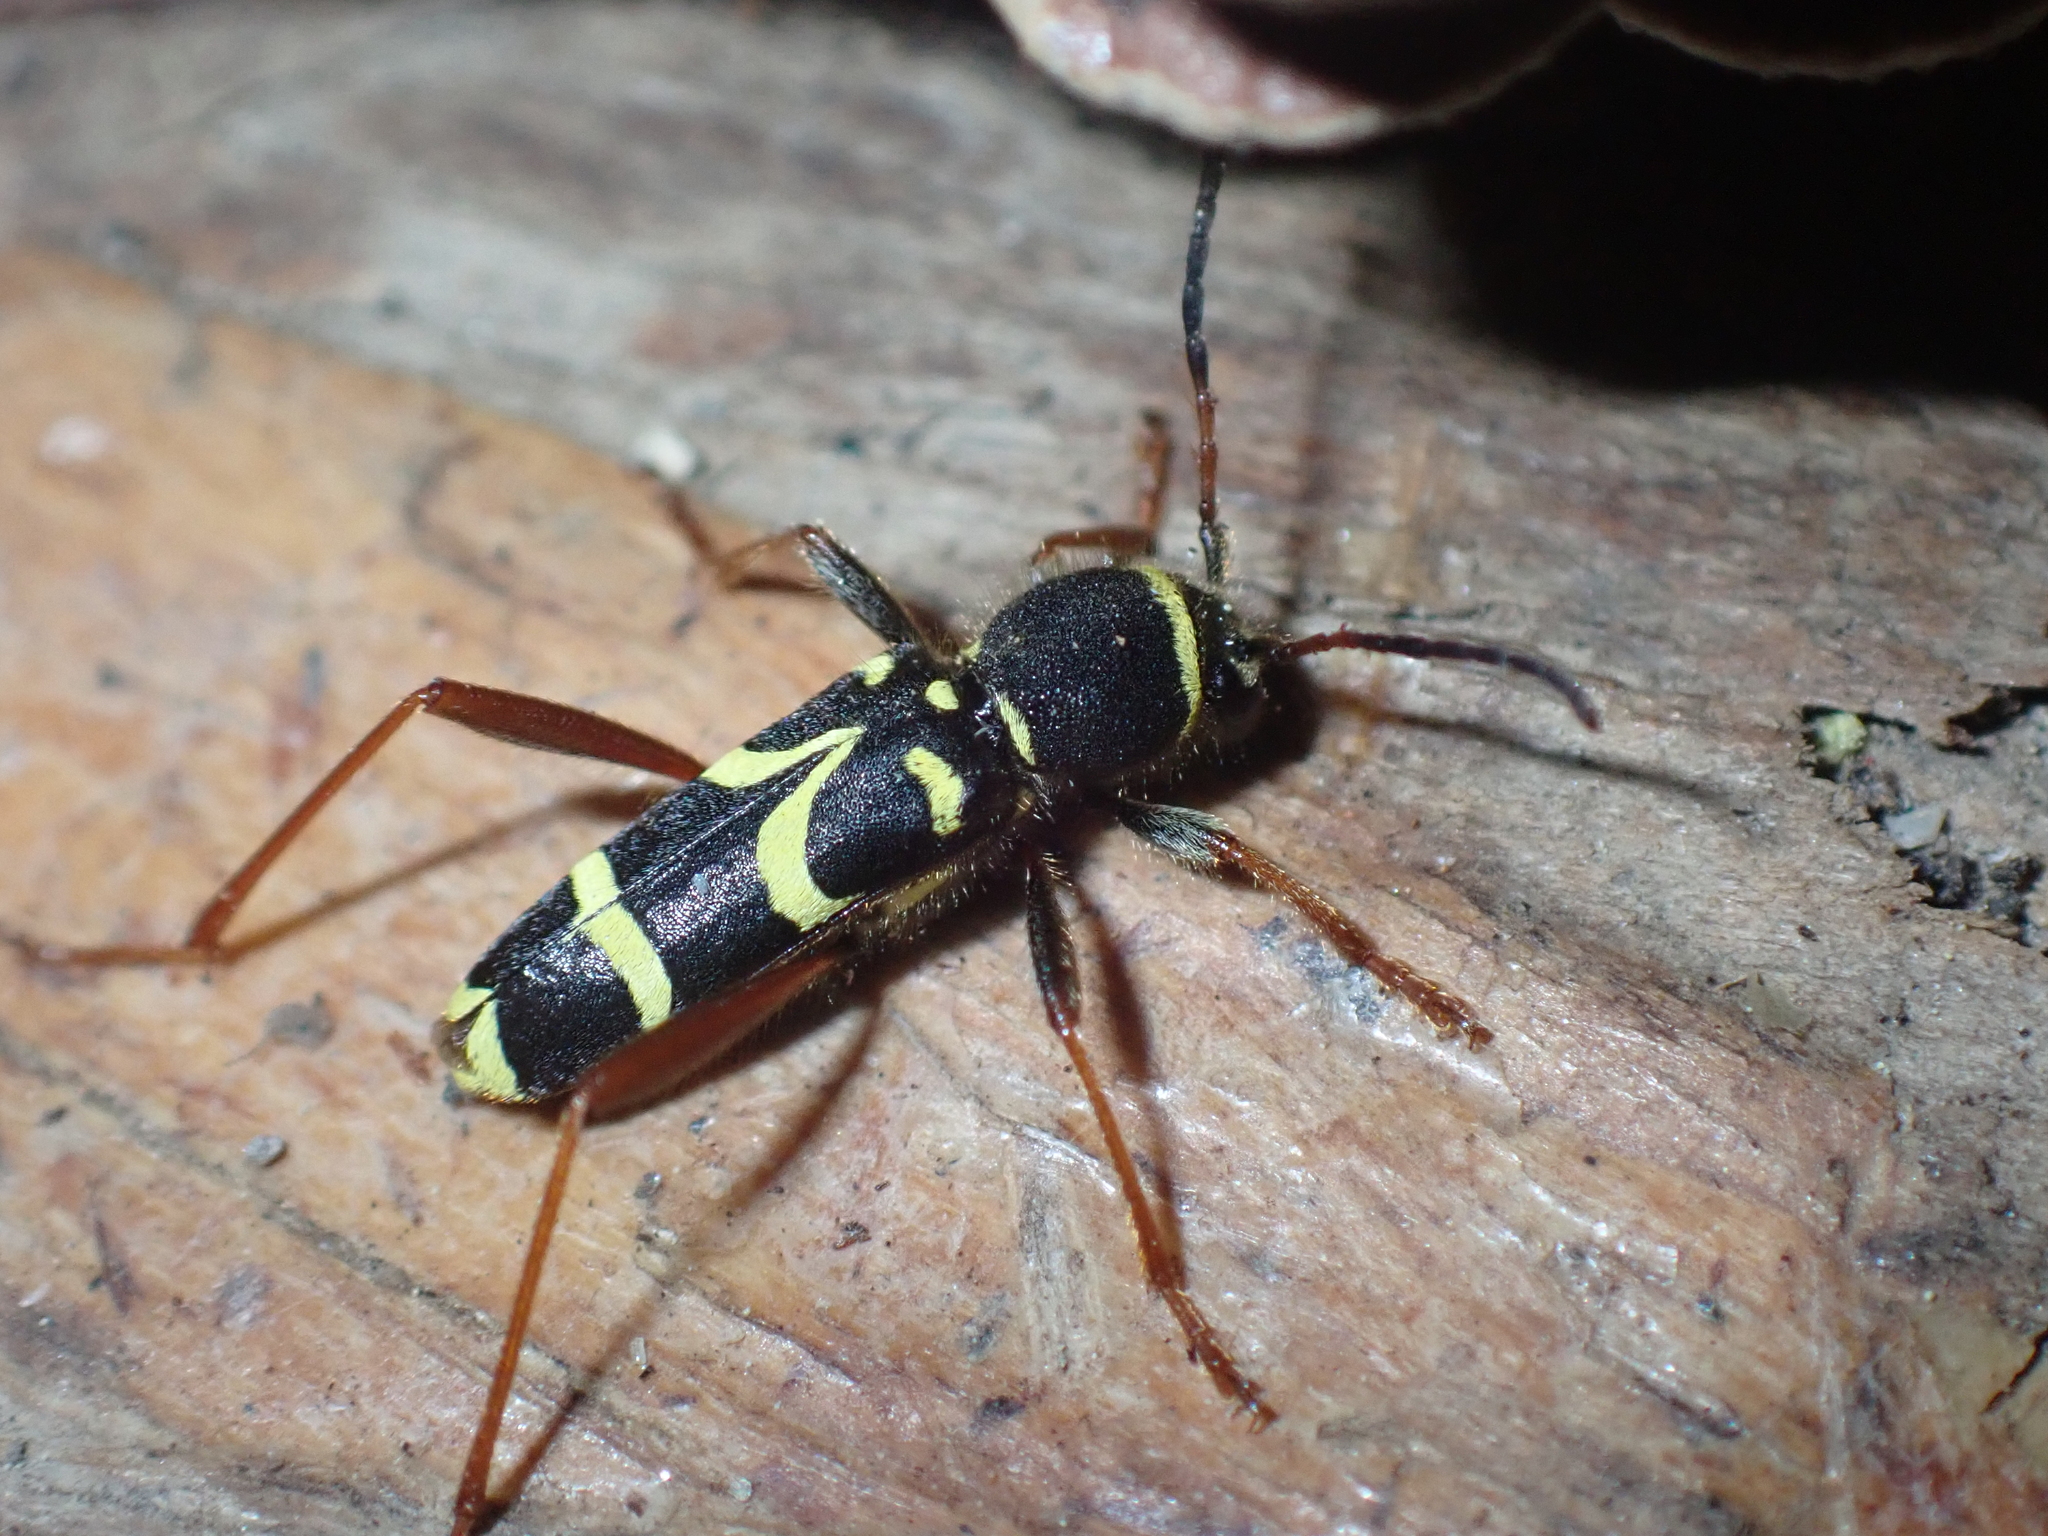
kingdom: Animalia
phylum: Arthropoda
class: Insecta
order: Coleoptera
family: Cerambycidae
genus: Clytus
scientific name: Clytus arietis
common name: Wasp beetle
